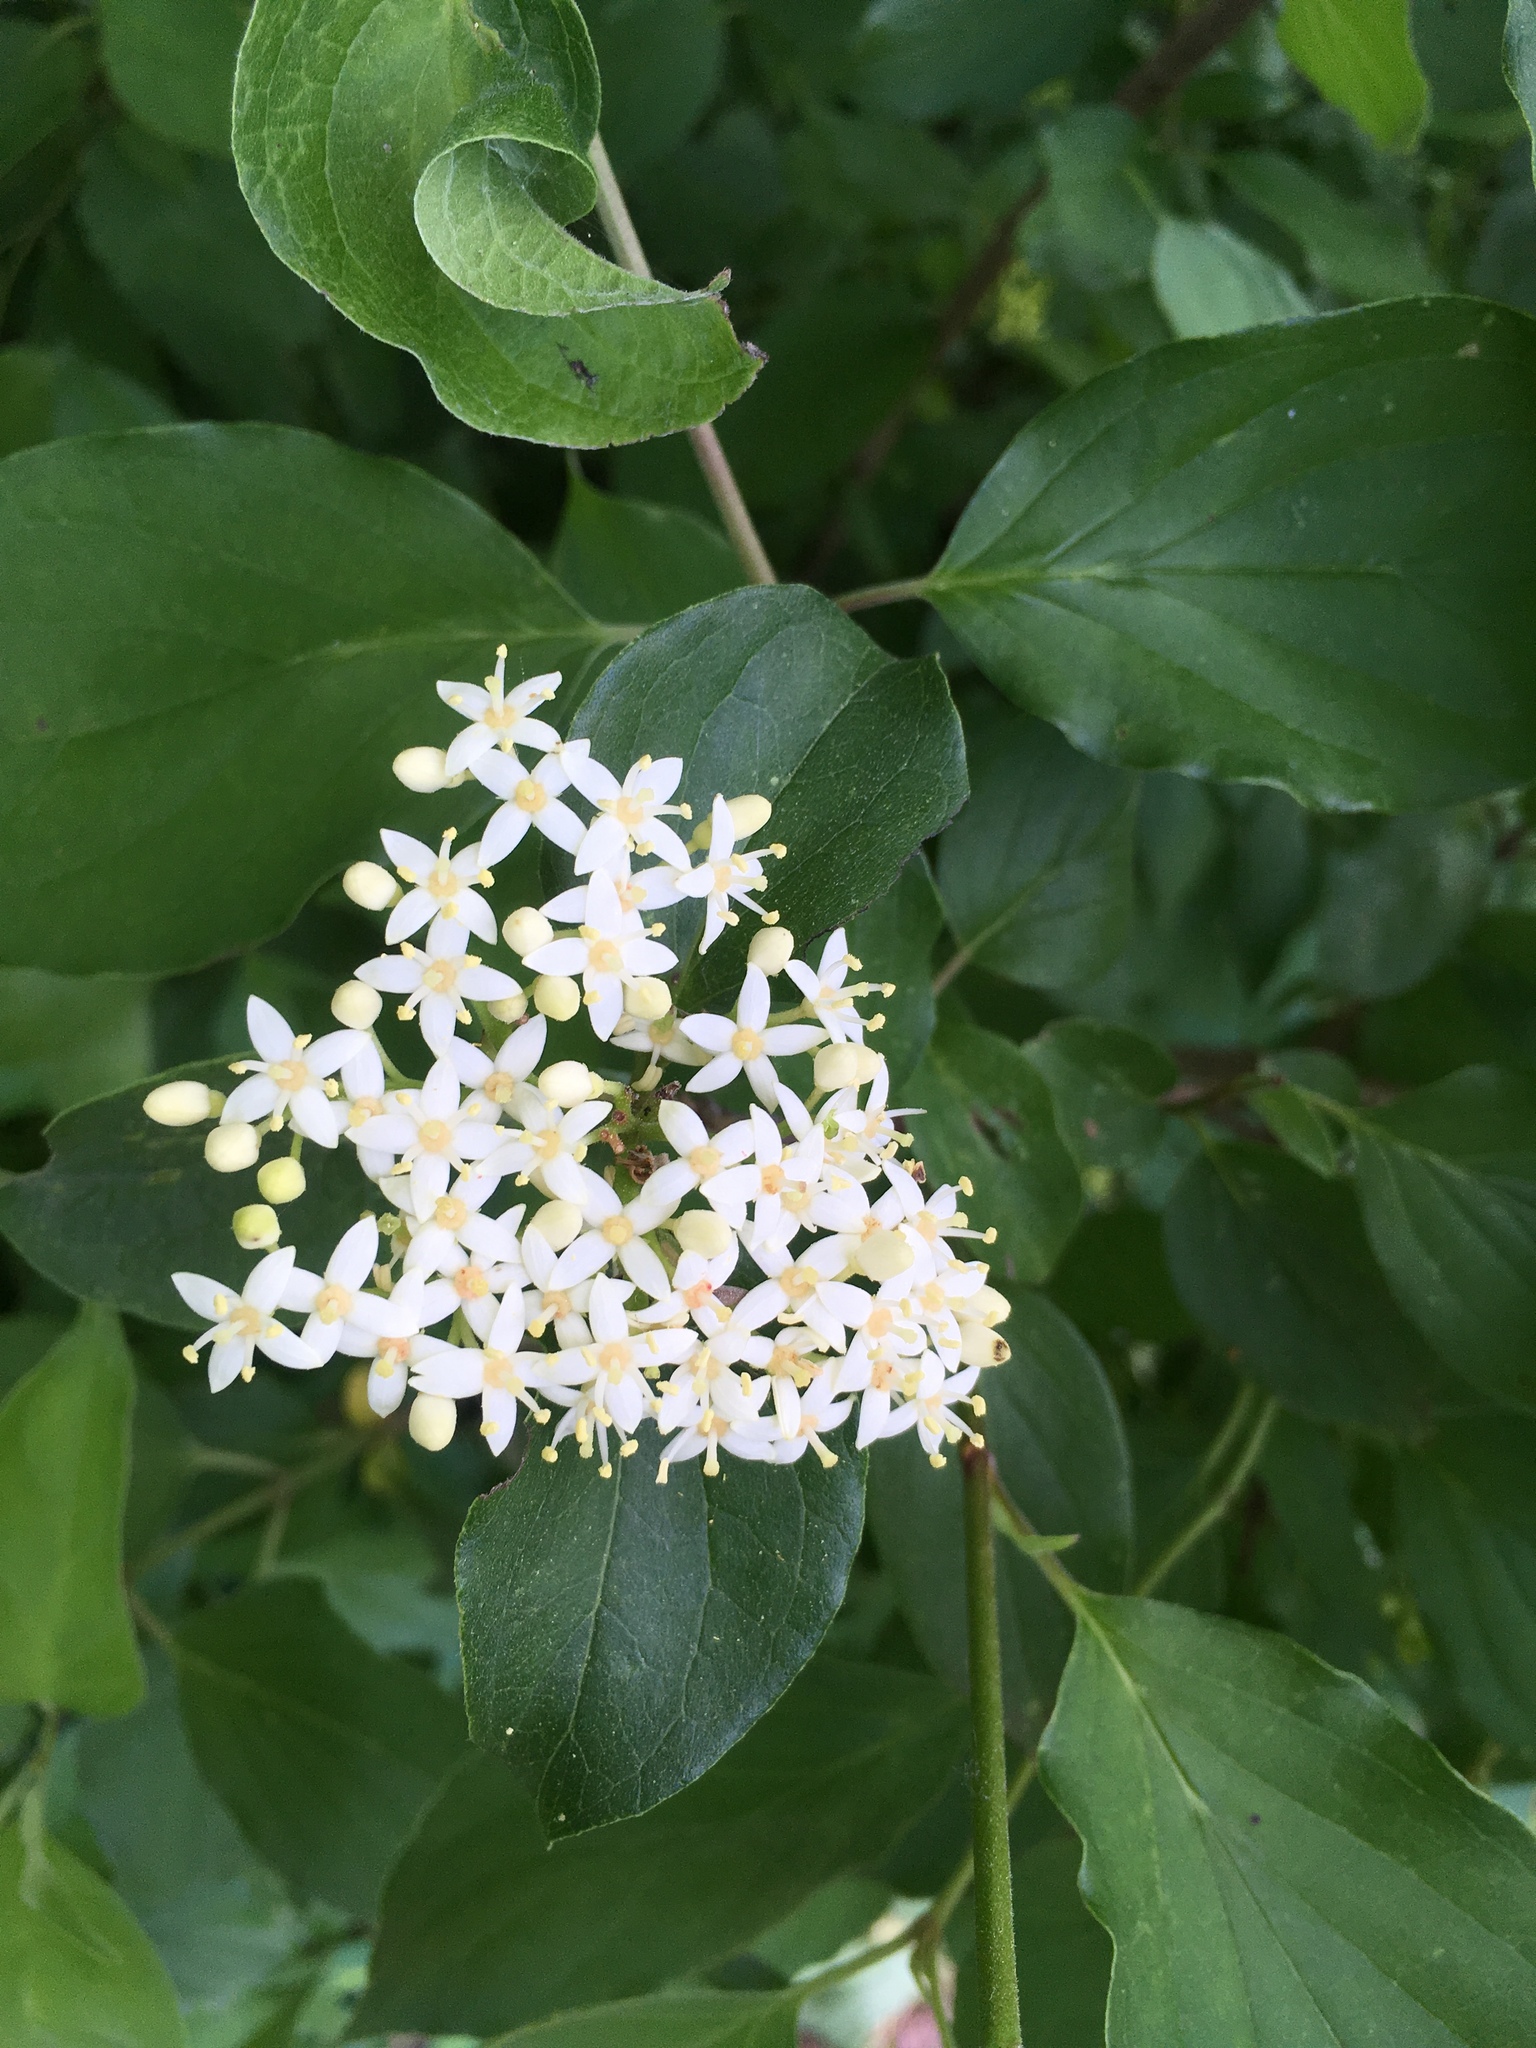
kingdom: Plantae
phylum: Tracheophyta
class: Magnoliopsida
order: Cornales
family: Cornaceae
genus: Cornus
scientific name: Cornus drummondii
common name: Rough-leaf dogwood
